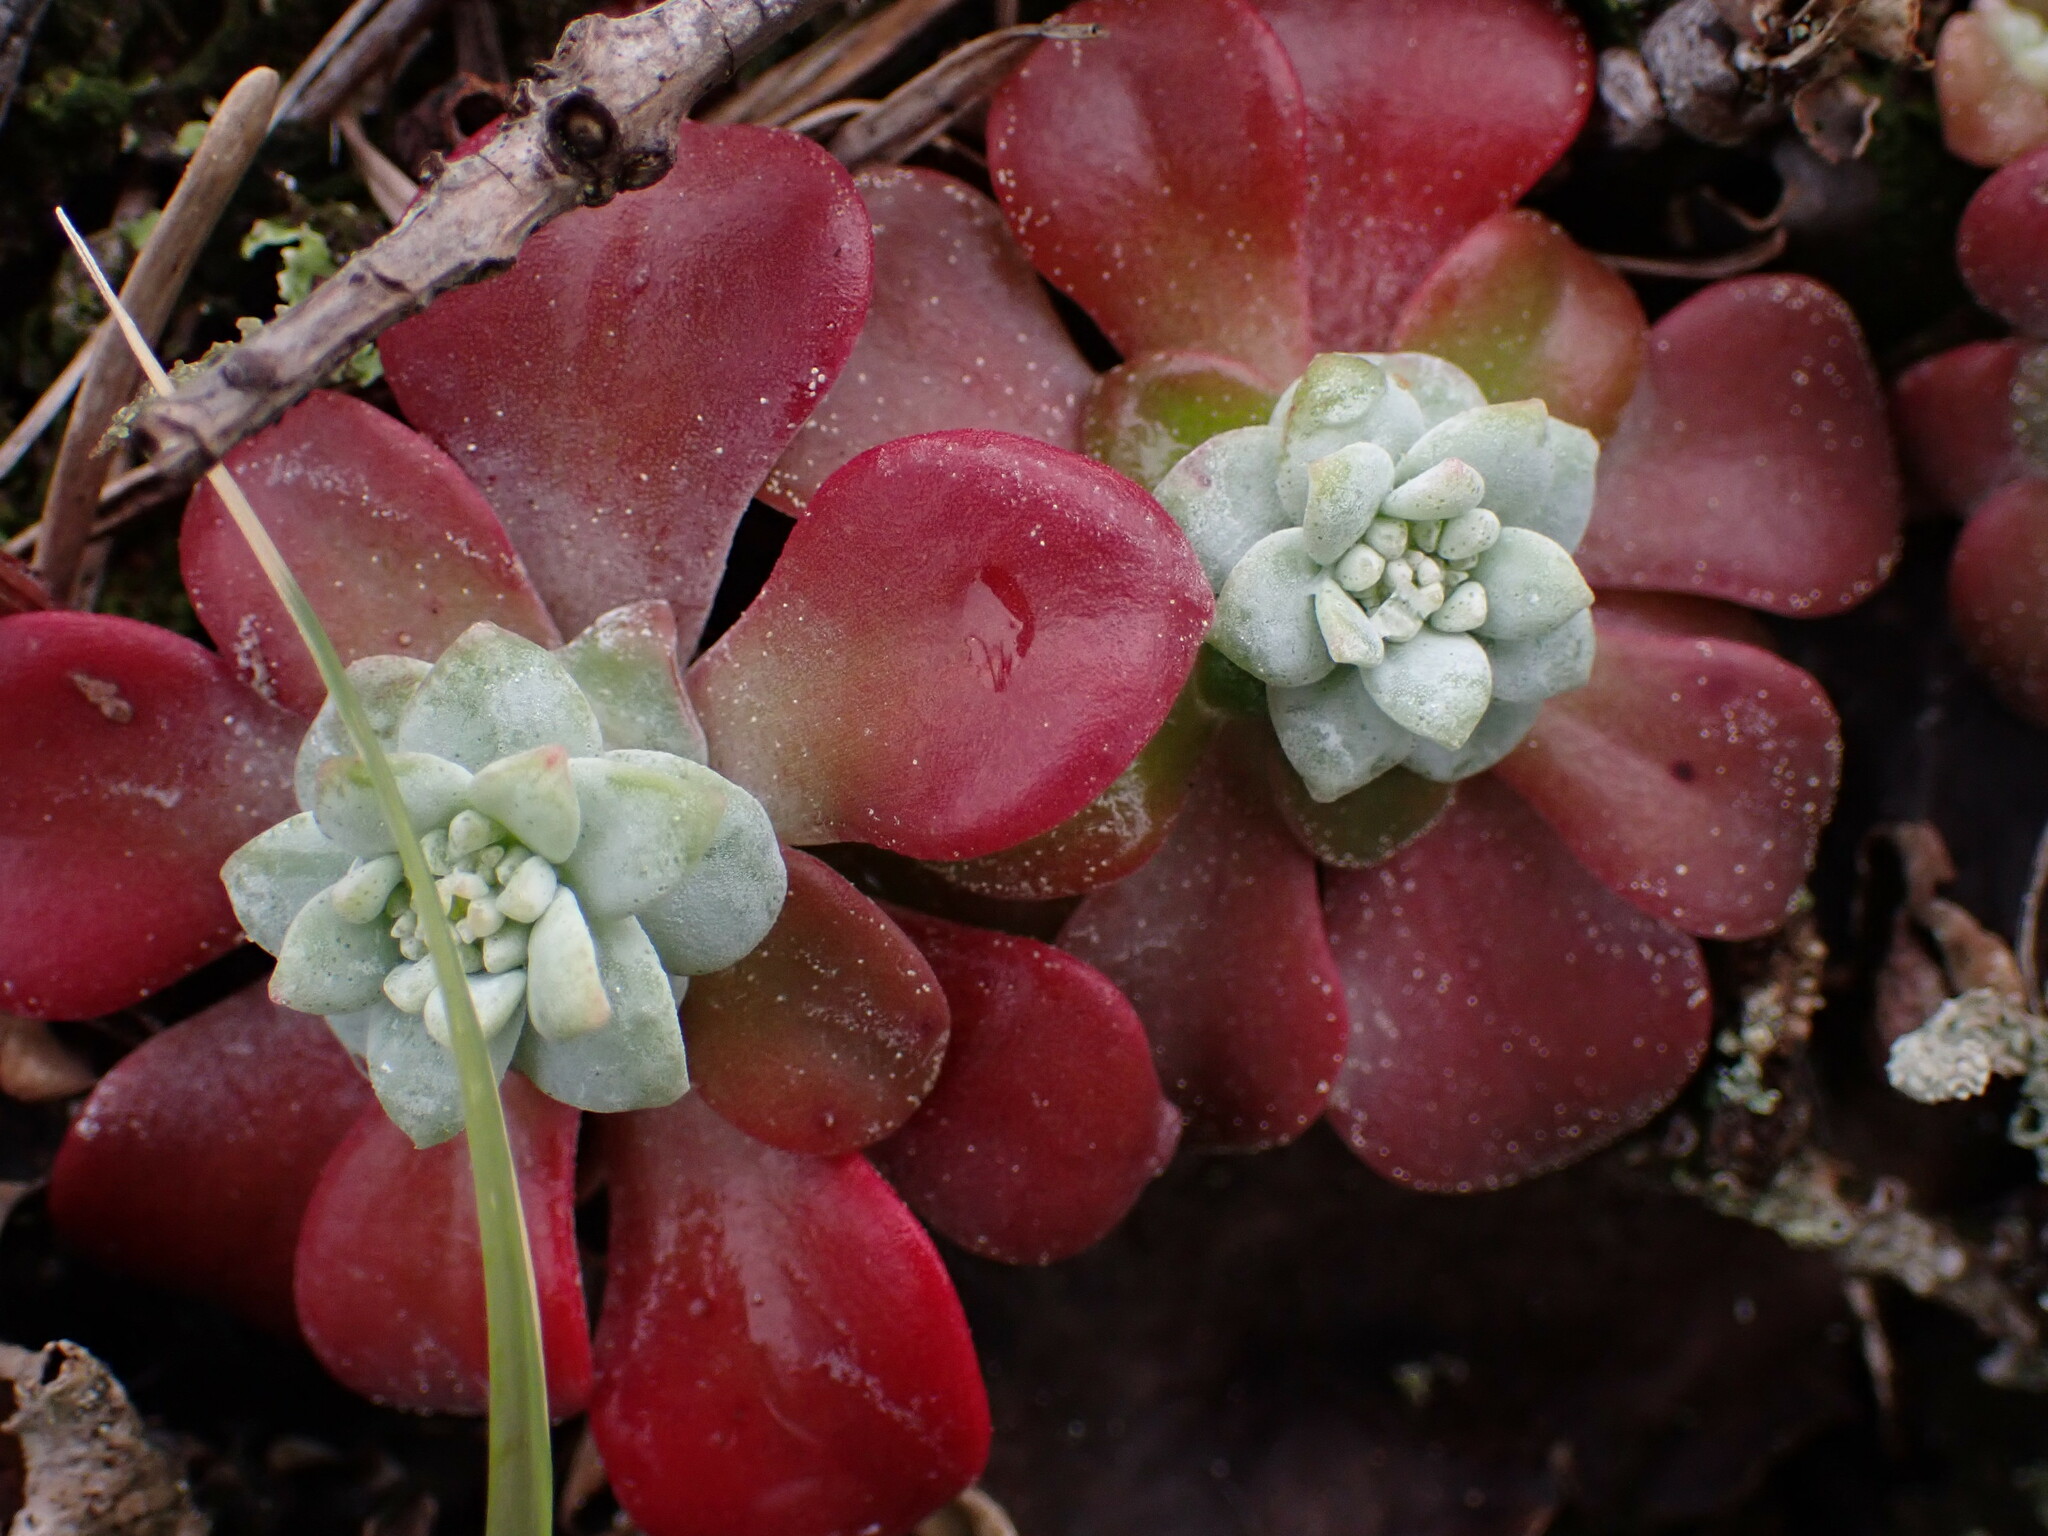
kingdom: Plantae
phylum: Tracheophyta
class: Magnoliopsida
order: Saxifragales
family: Crassulaceae
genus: Sedum
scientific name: Sedum spathulifolium
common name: Colorado stonecrop
